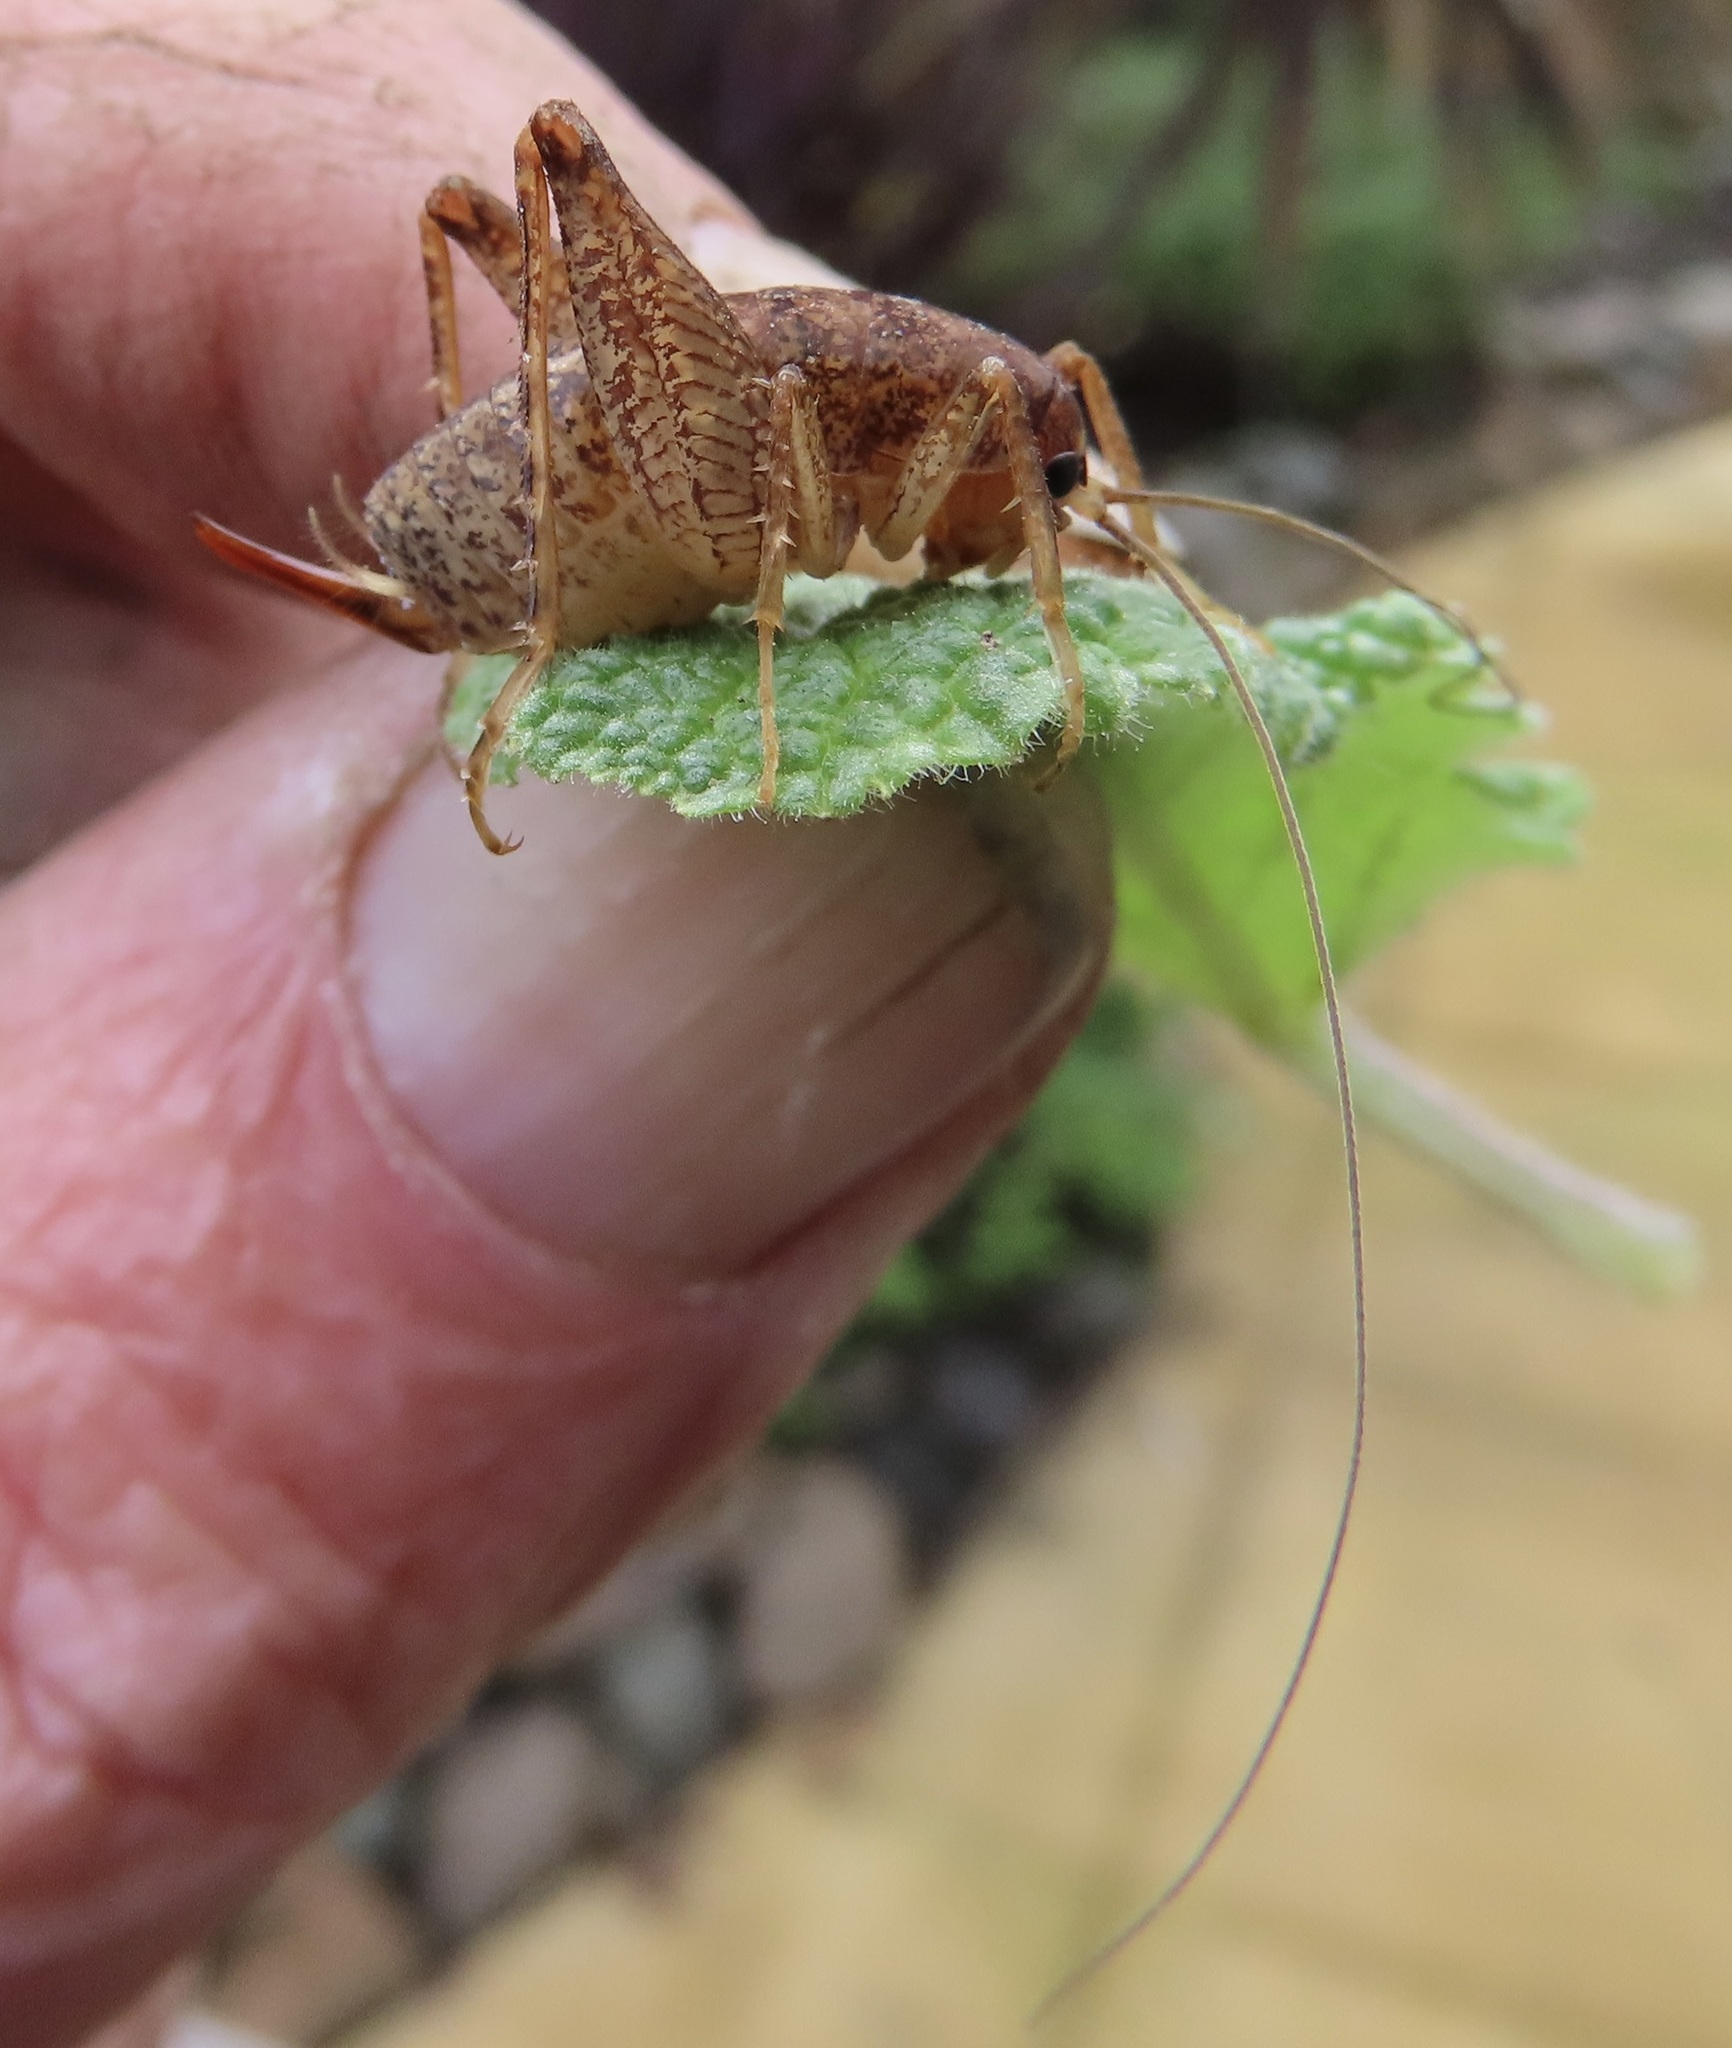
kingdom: Animalia
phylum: Arthropoda
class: Insecta
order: Orthoptera
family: Rhaphidophoridae
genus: Pristoceuthophilus
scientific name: Pristoceuthophilus pacificus
